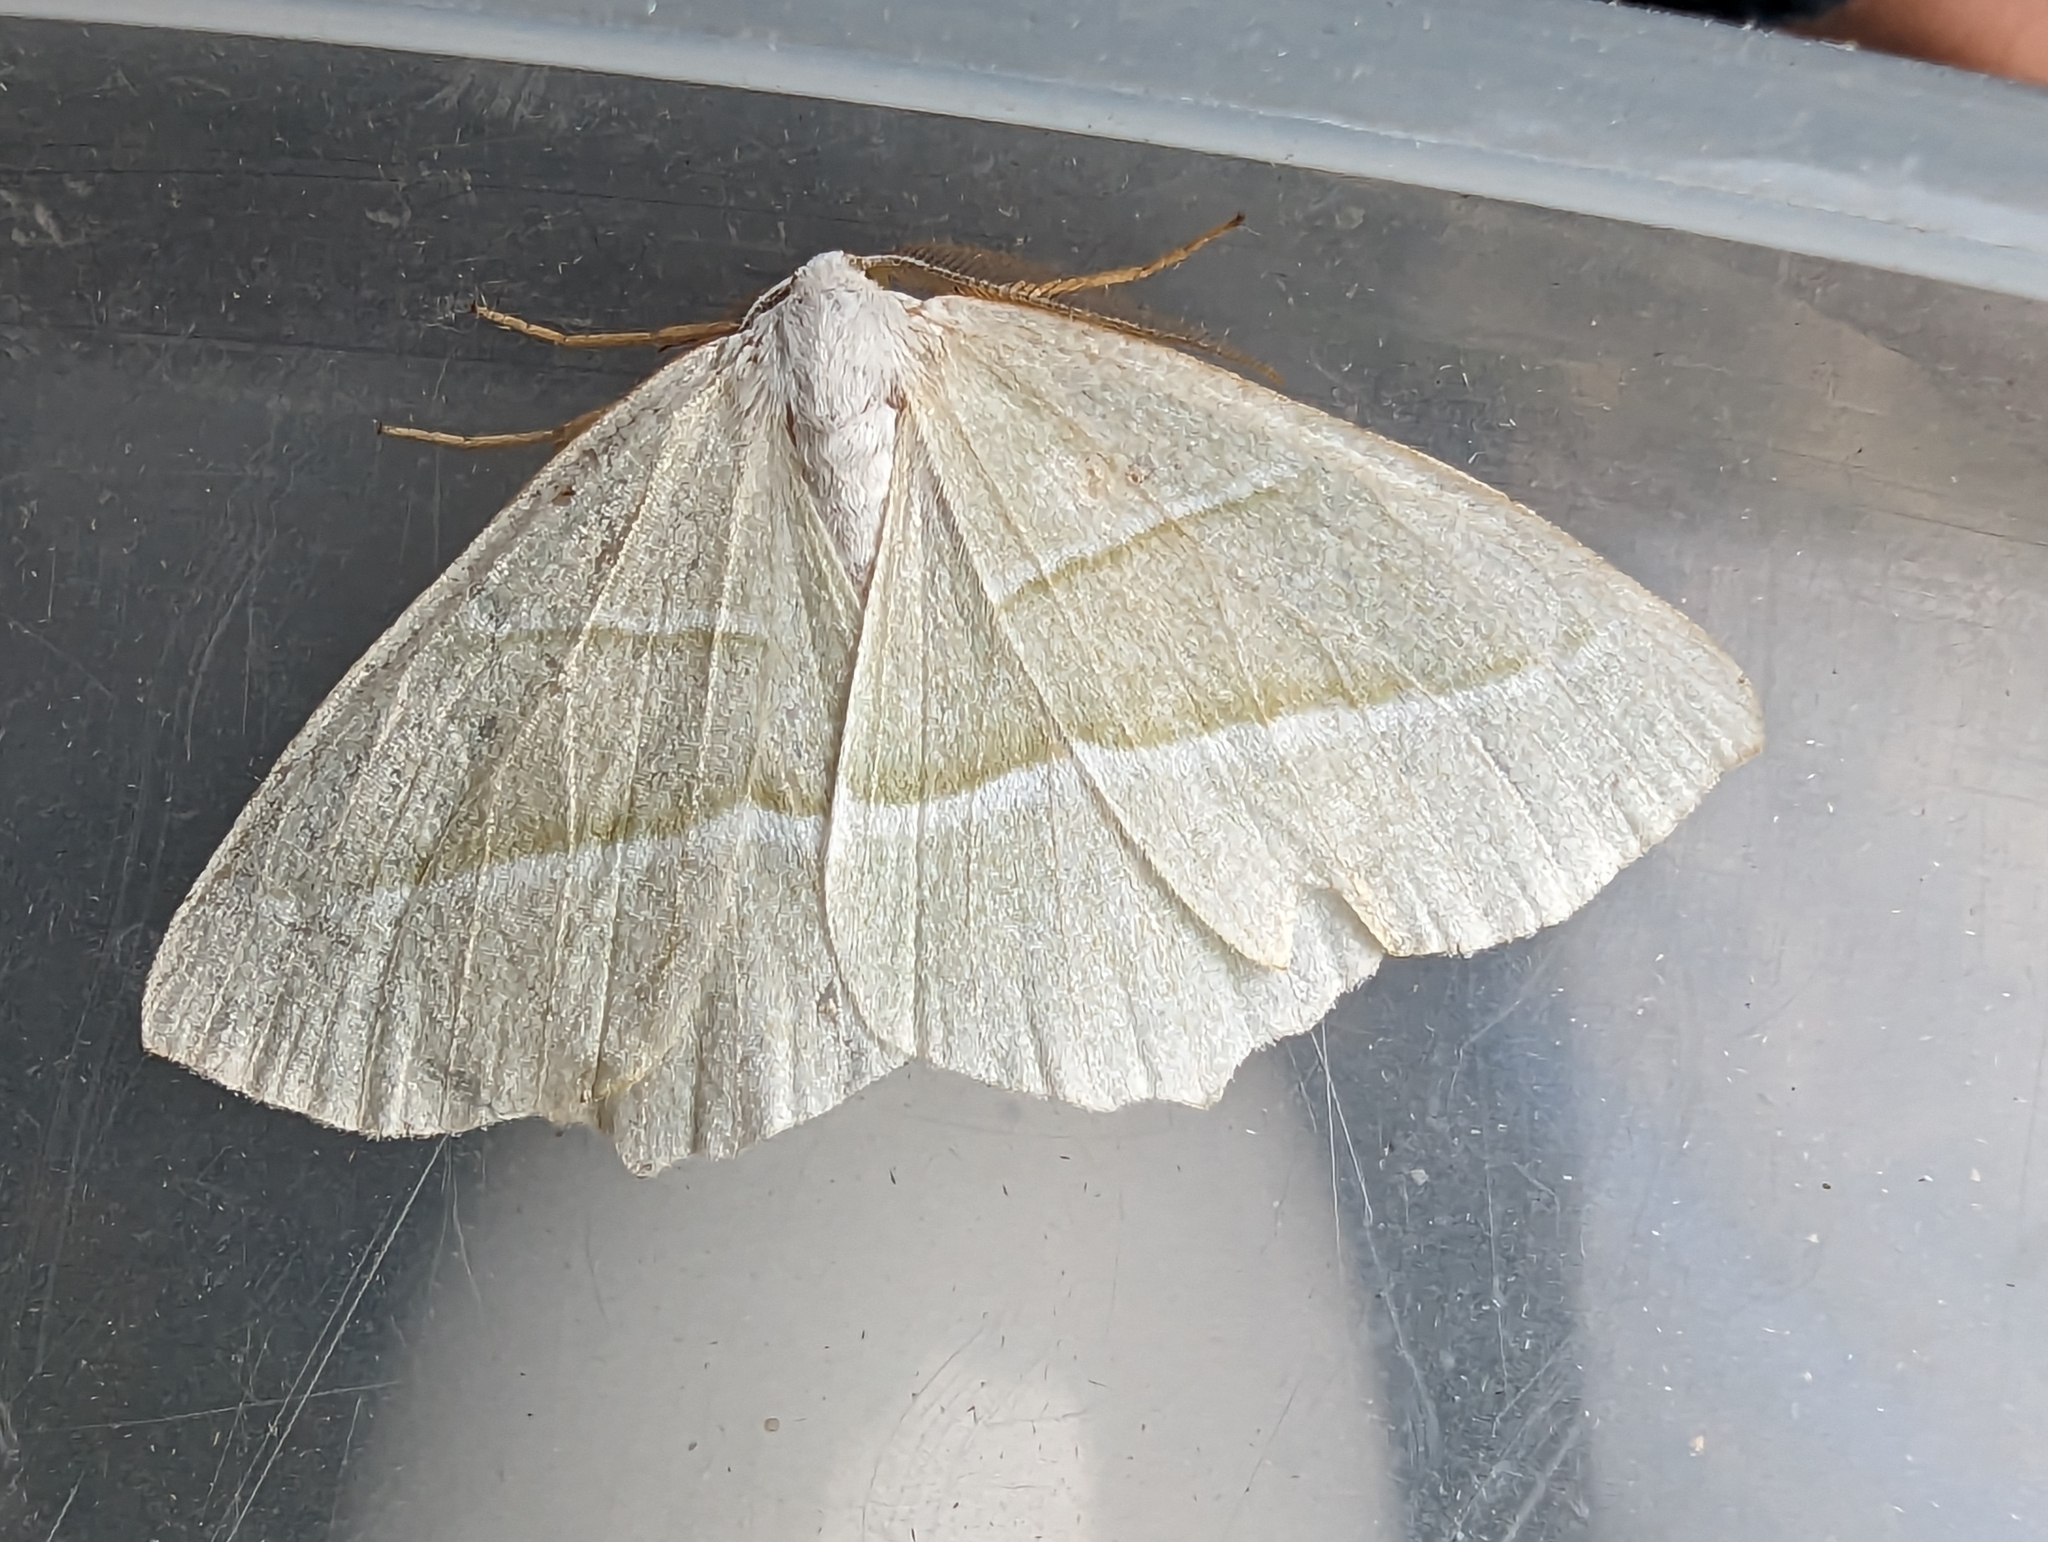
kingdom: Animalia
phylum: Arthropoda
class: Insecta
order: Lepidoptera
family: Geometridae
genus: Campaea
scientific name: Campaea margaritaria
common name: Light emerald
